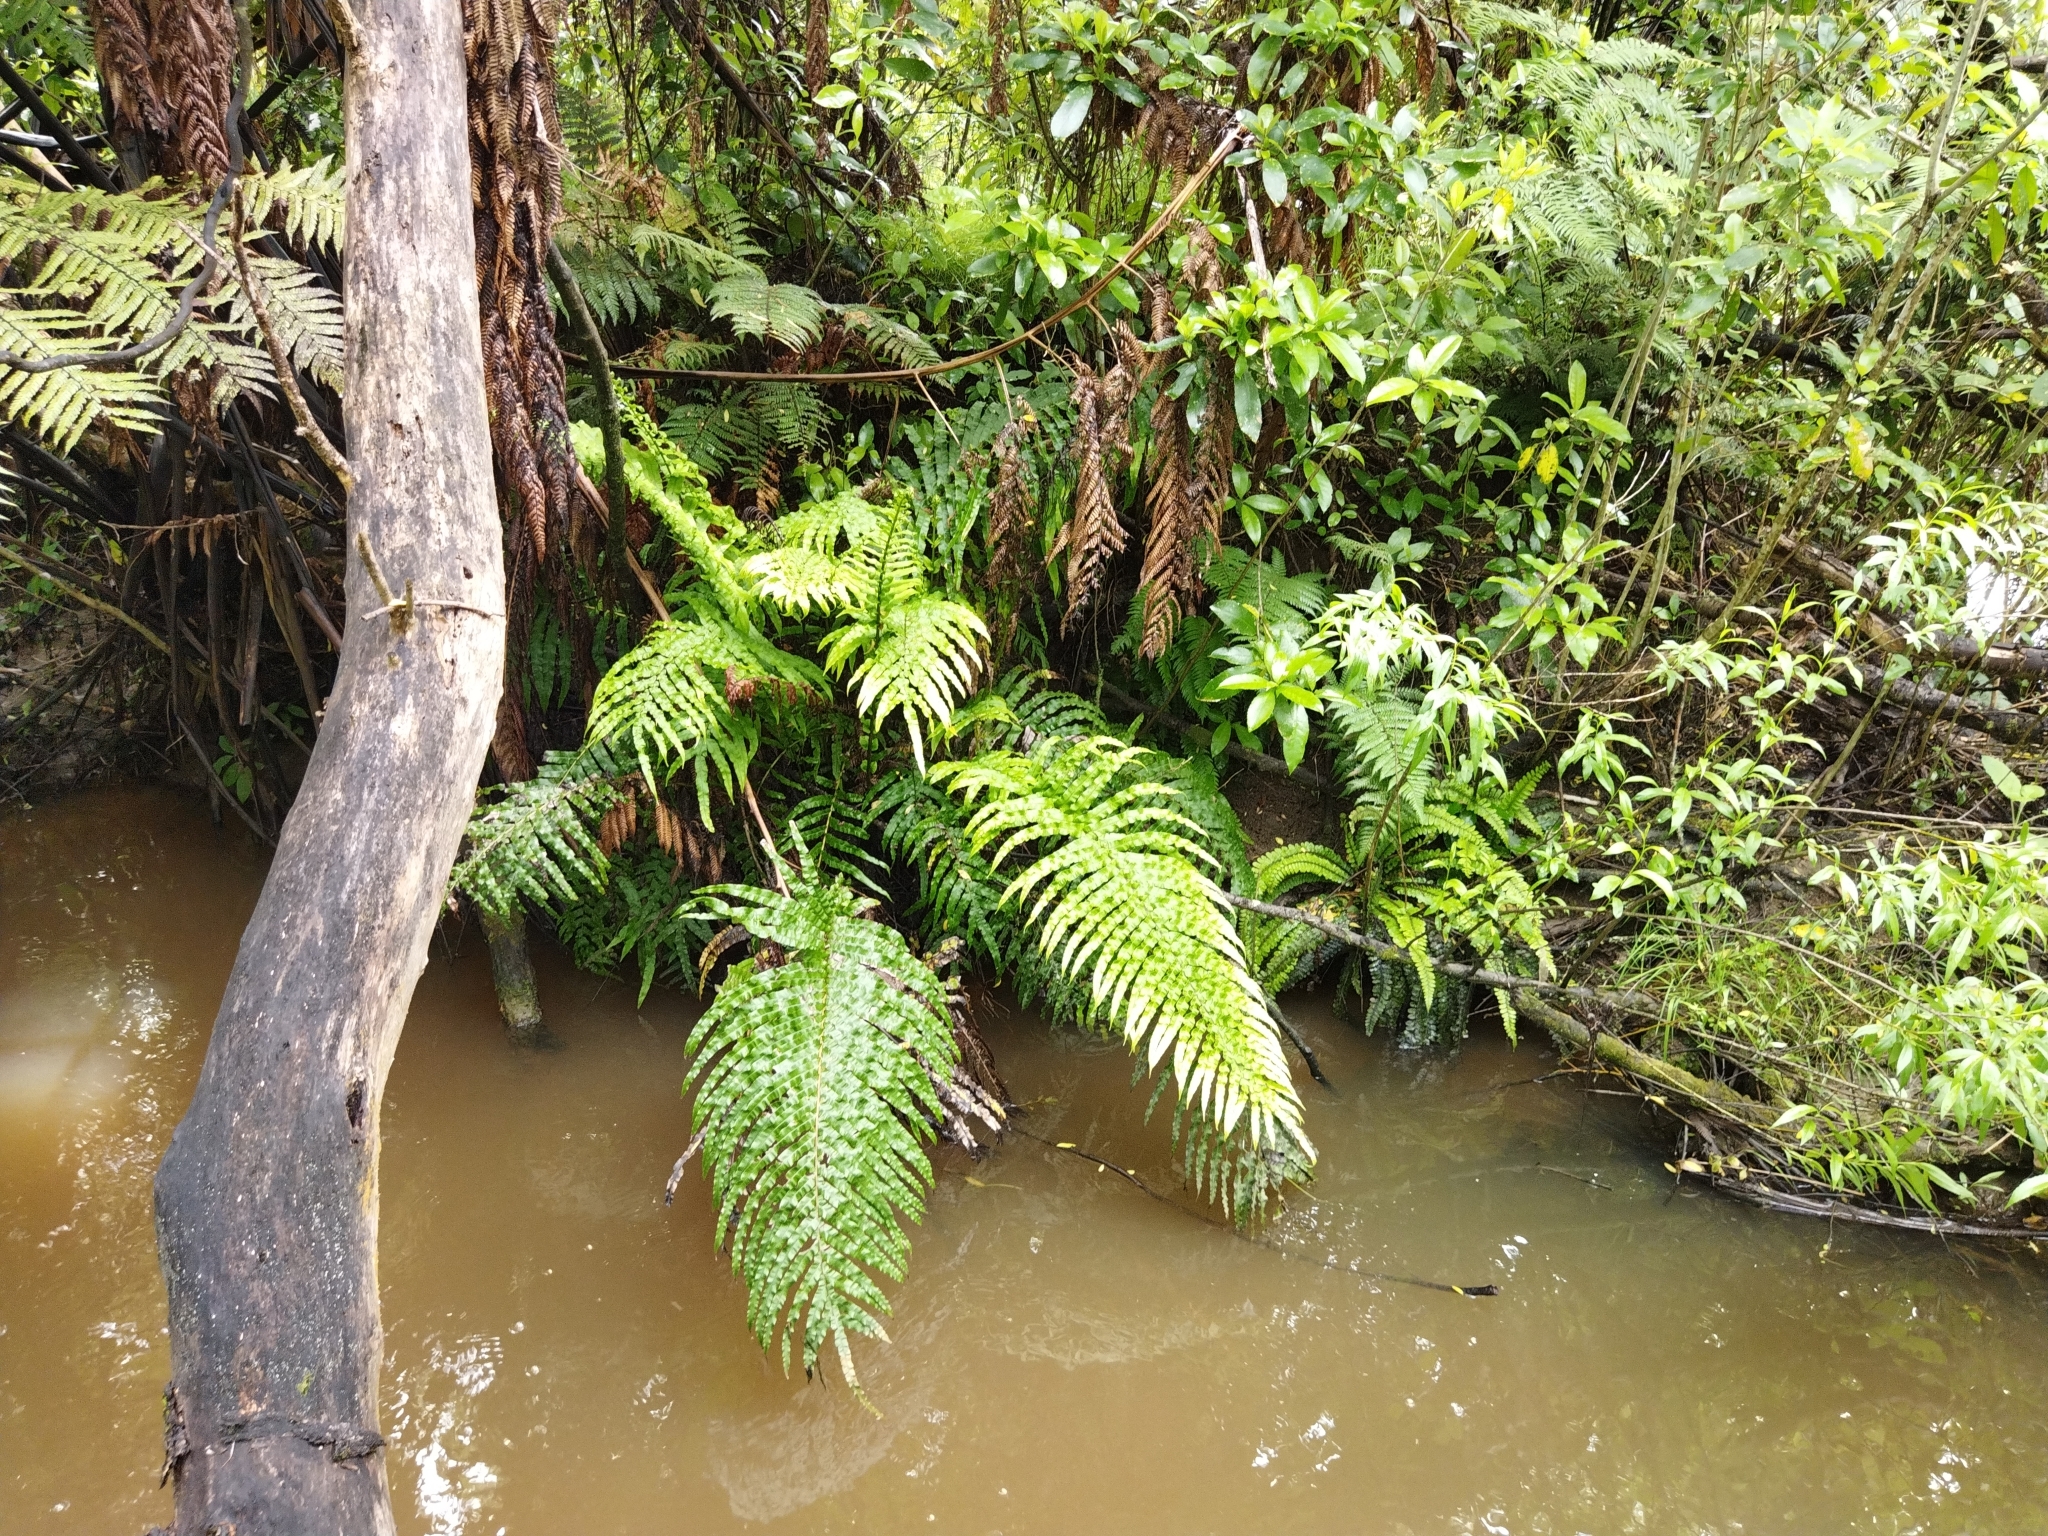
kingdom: Plantae
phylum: Tracheophyta
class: Polypodiopsida
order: Polypodiales
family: Blechnaceae
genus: Parablechnum
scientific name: Parablechnum novae-zelandiae
